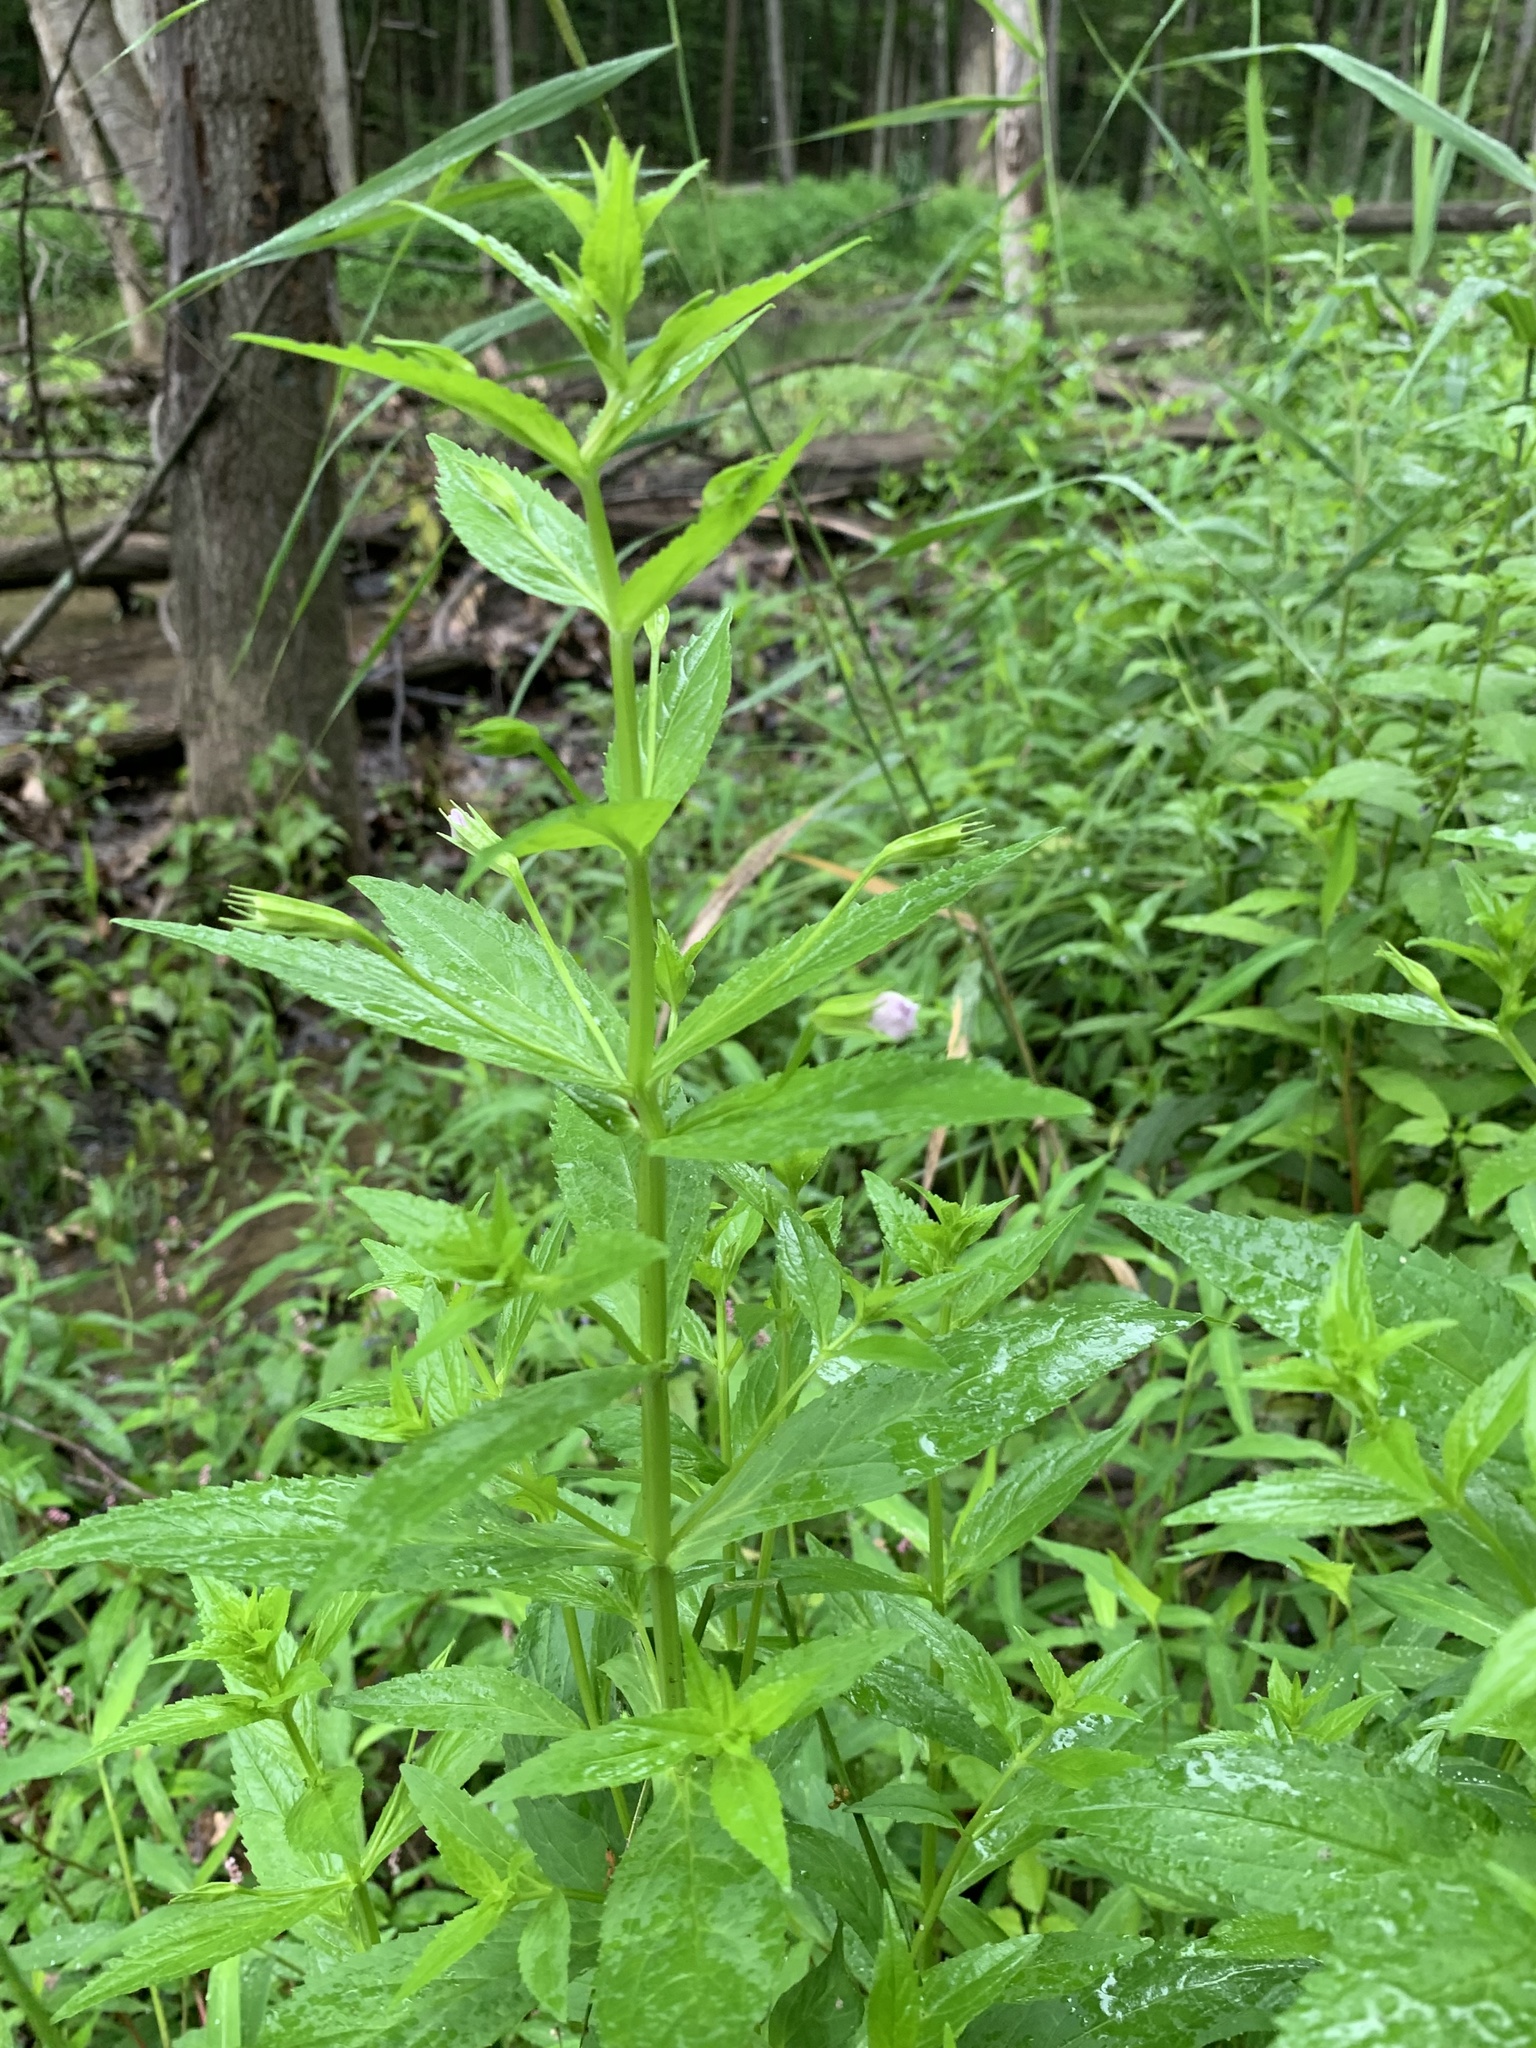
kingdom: Plantae
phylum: Tracheophyta
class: Magnoliopsida
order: Lamiales
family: Phrymaceae
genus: Mimulus
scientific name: Mimulus ringens
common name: Allegheny monkeyflower
